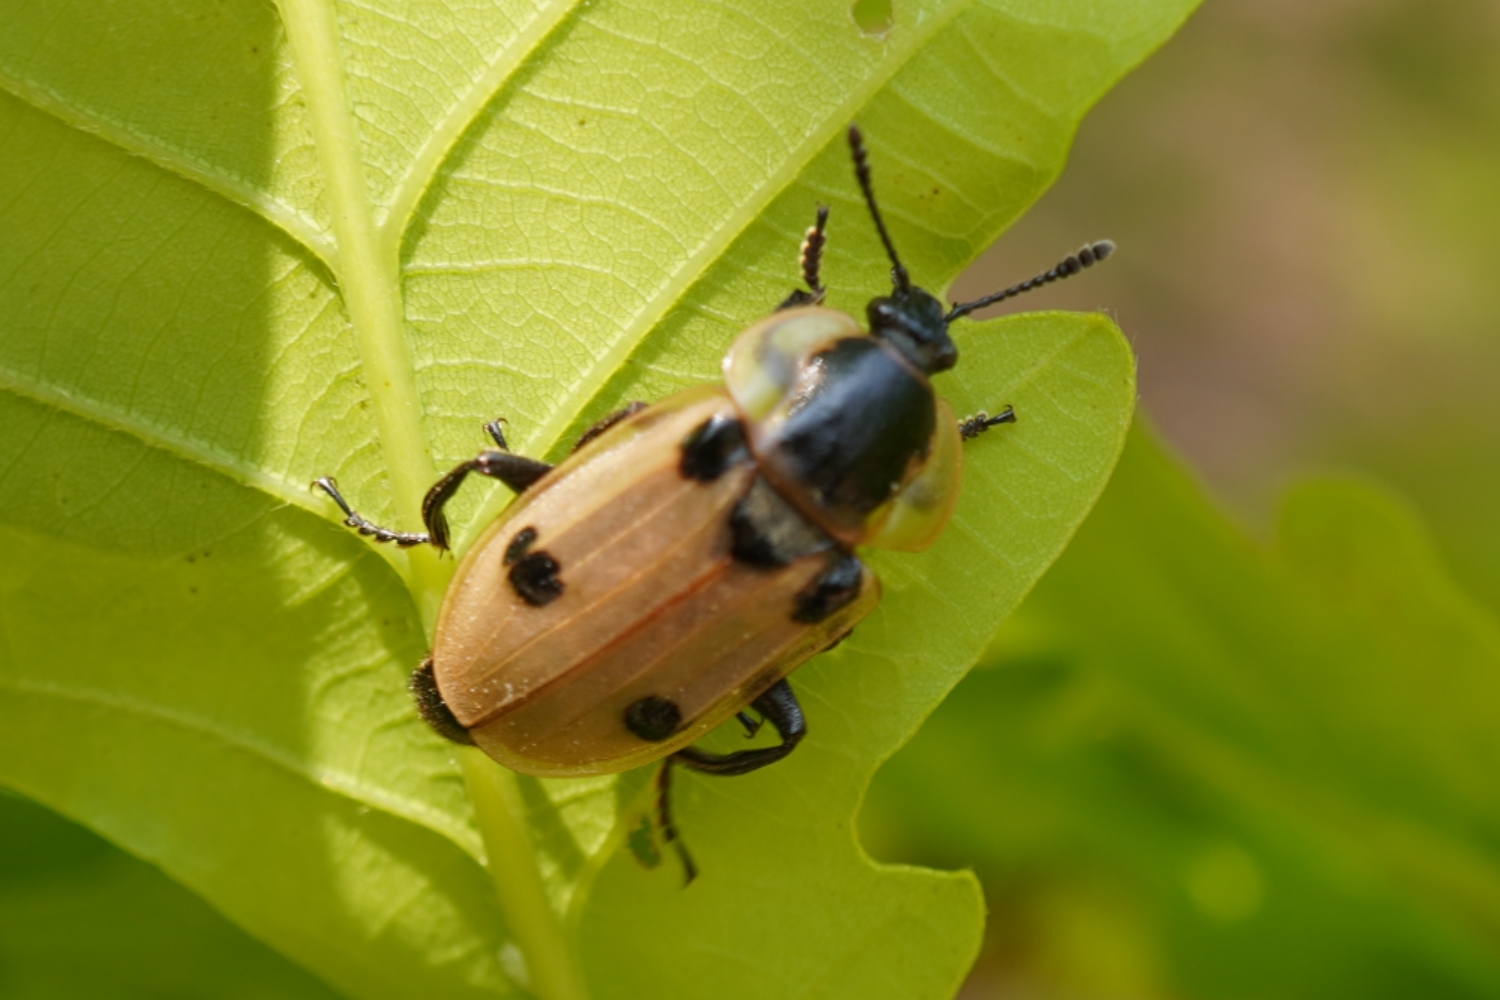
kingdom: Animalia
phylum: Arthropoda
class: Insecta
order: Coleoptera
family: Staphylinidae
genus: Dendroxena
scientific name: Dendroxena sexcarinata
